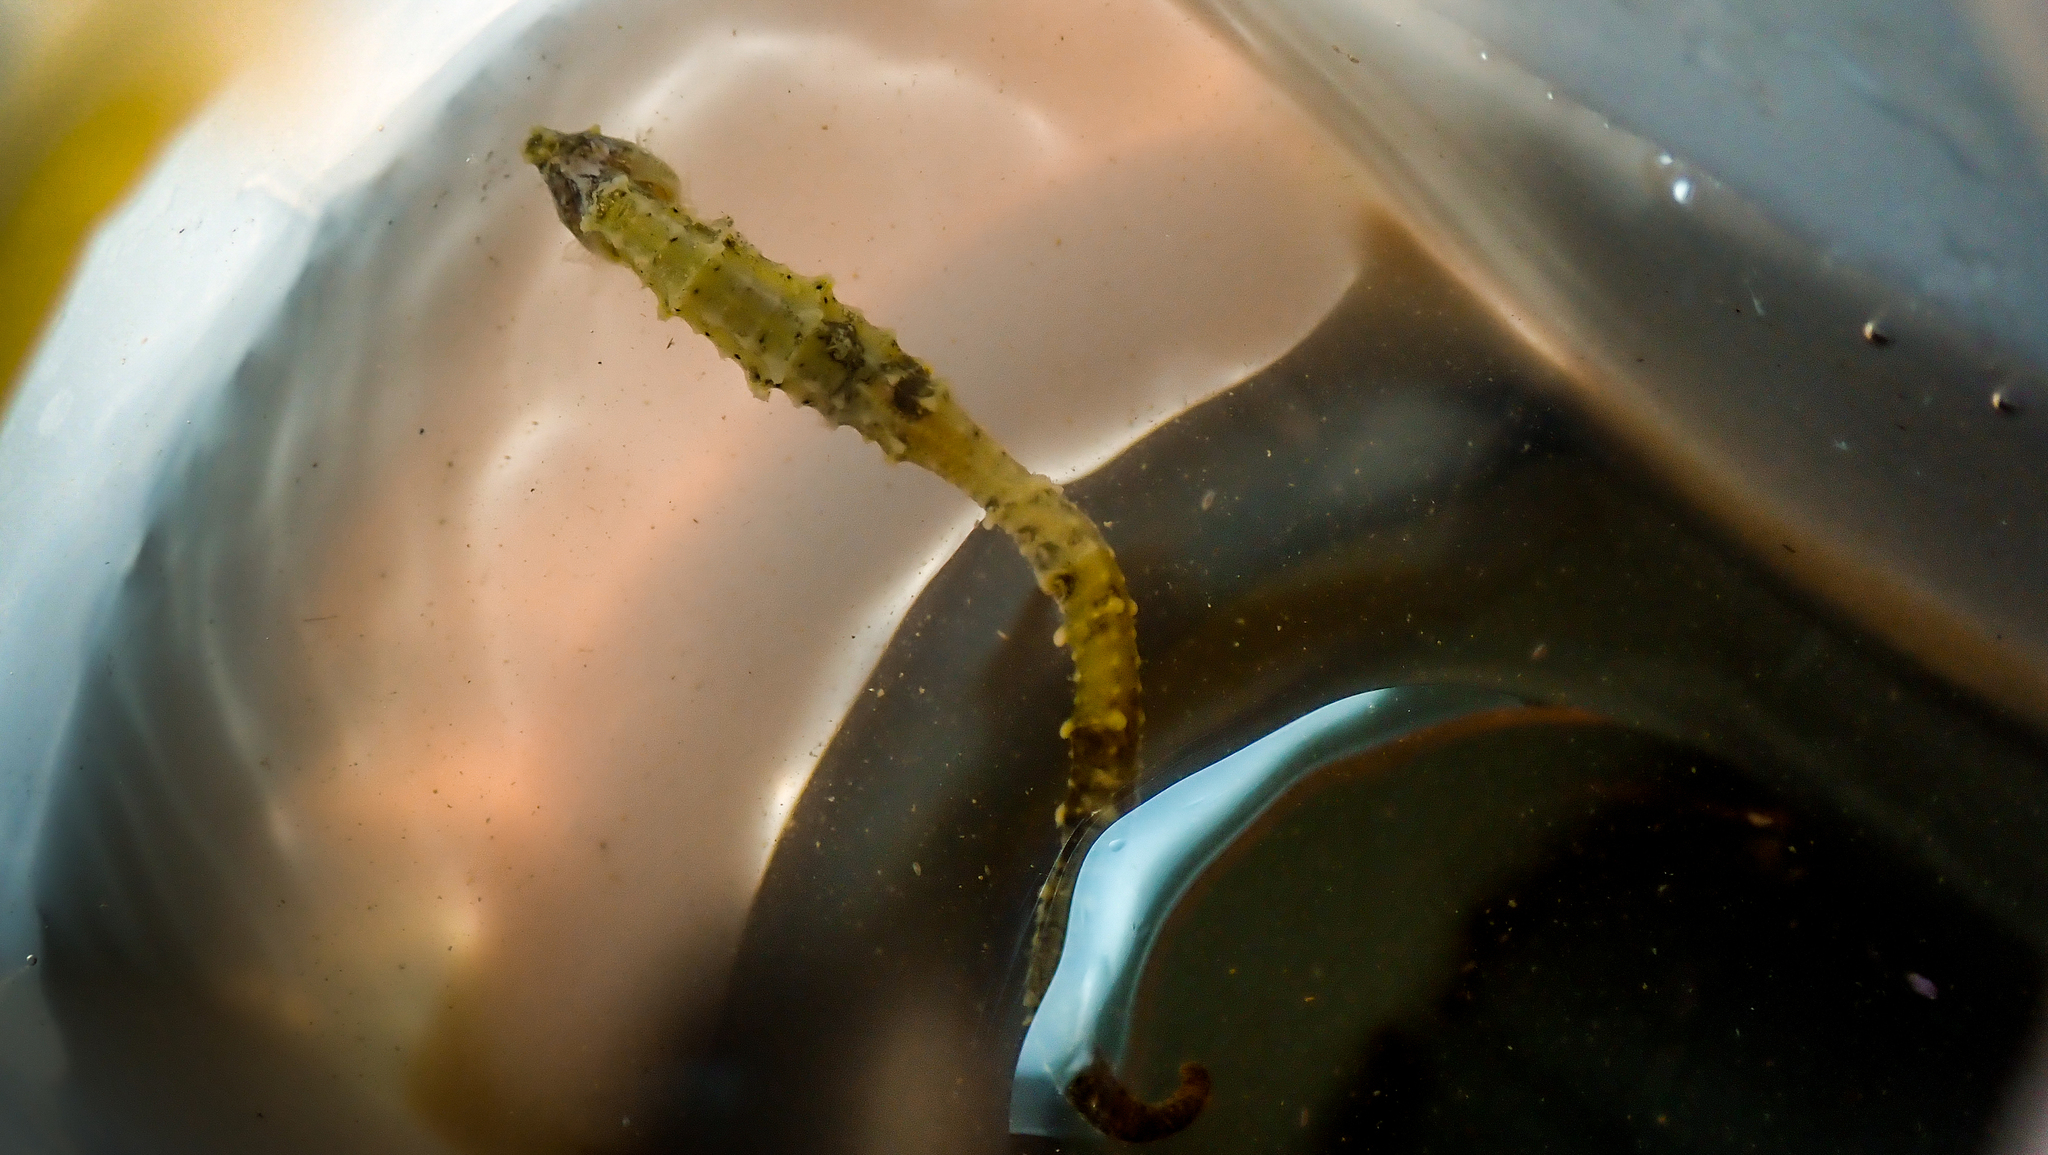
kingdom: Animalia
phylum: Chordata
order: Syngnathiformes
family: Syngnathidae
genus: Hippocampus
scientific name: Hippocampus spinosissimus
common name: Hedgehog seahorse
